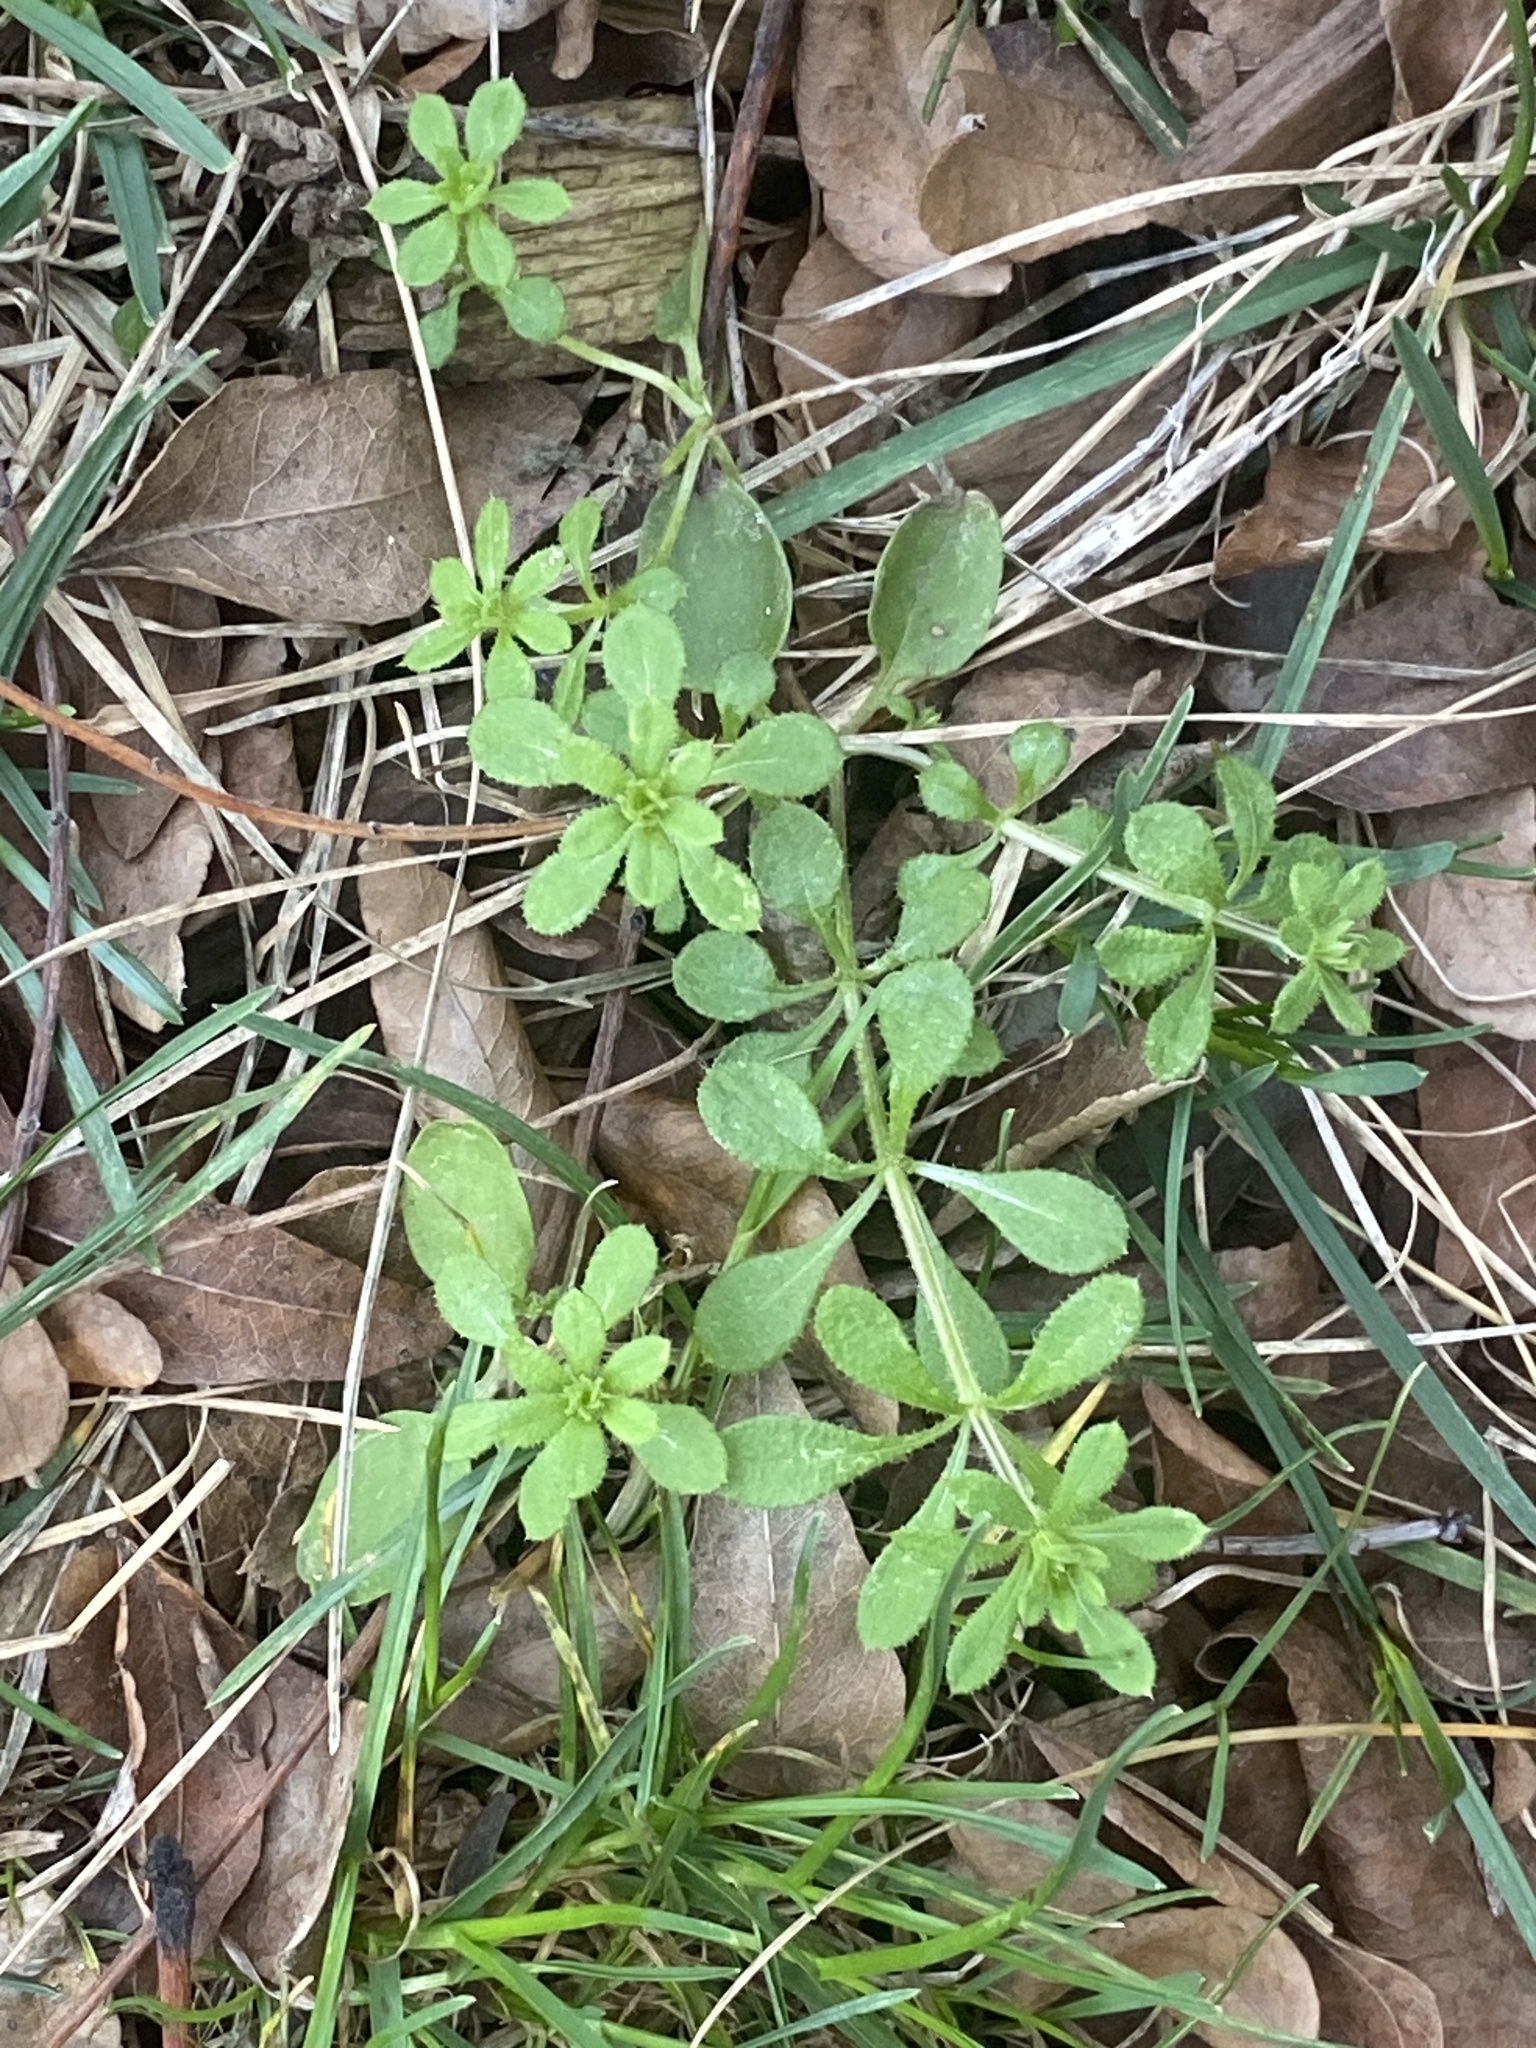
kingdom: Plantae
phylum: Tracheophyta
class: Magnoliopsida
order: Gentianales
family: Rubiaceae
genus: Galium
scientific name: Galium aparine
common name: Cleavers
